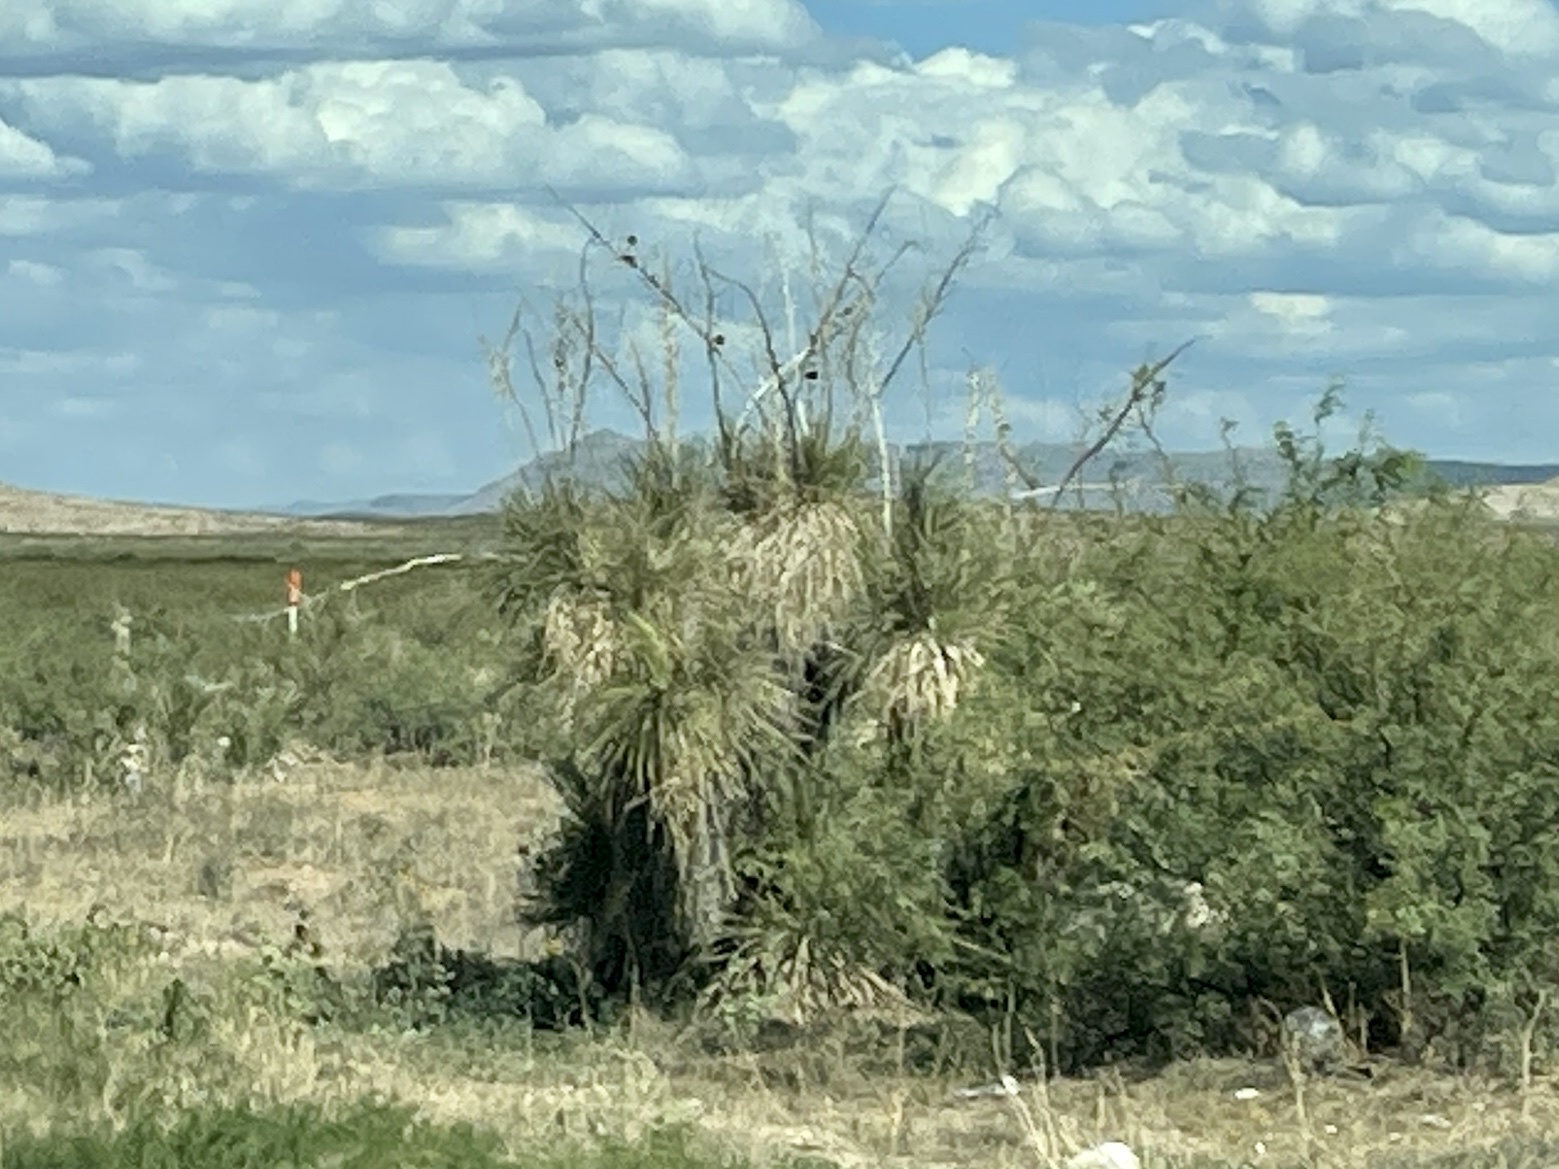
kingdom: Plantae
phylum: Tracheophyta
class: Liliopsida
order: Asparagales
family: Asparagaceae
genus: Yucca
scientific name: Yucca elata
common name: Palmella
